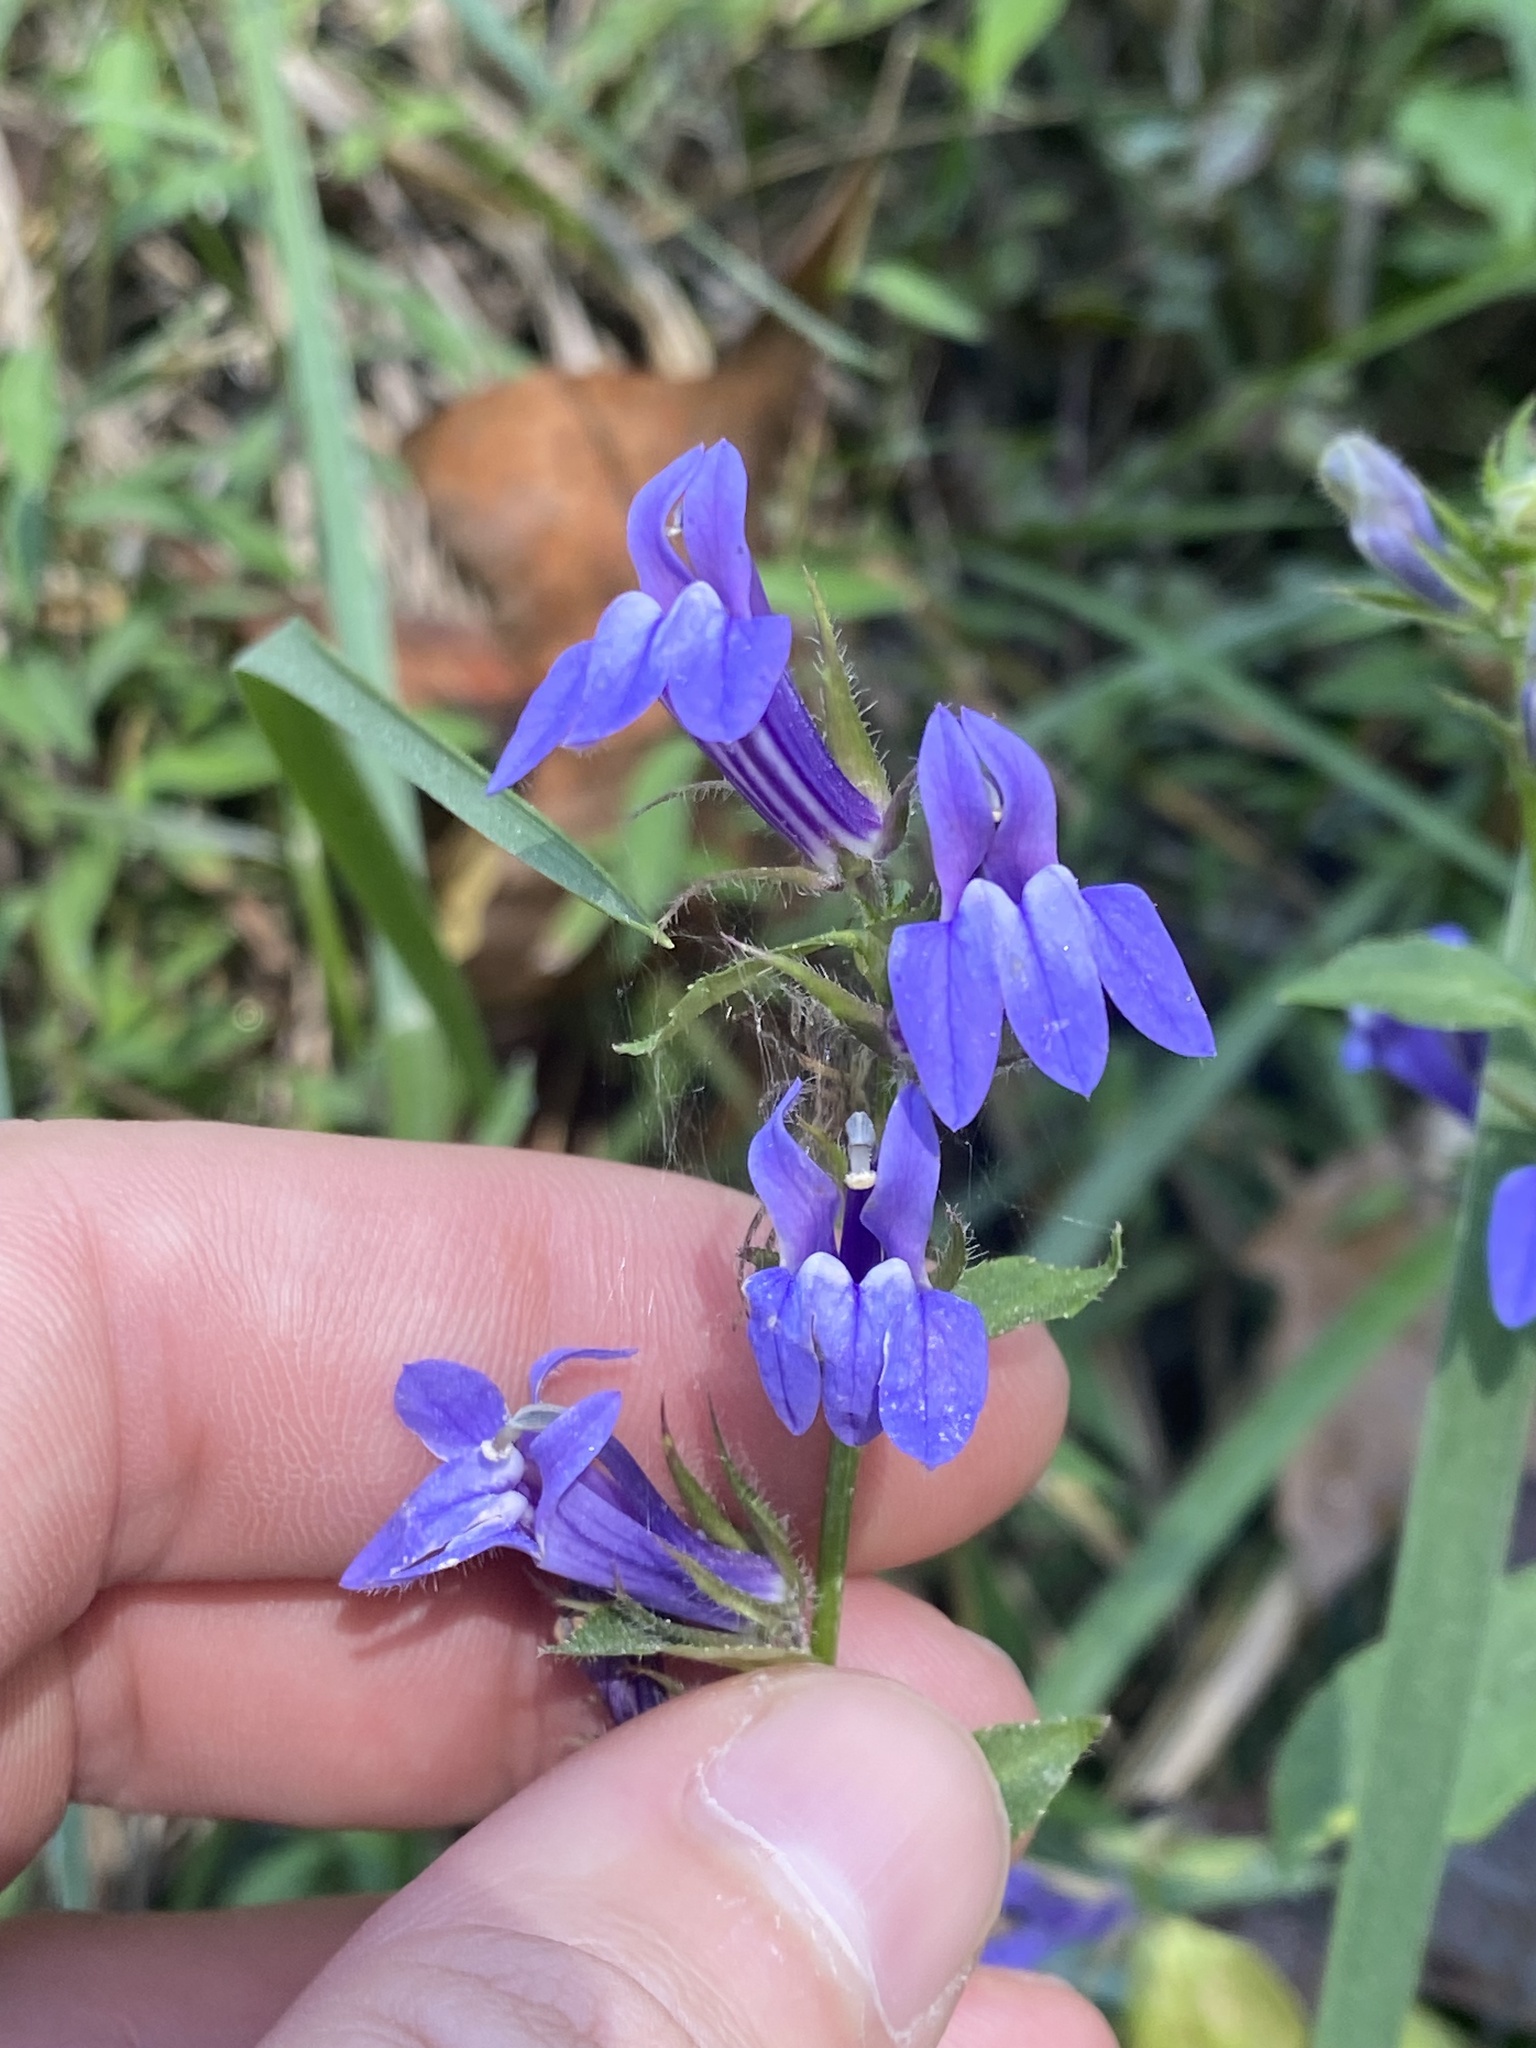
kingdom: Plantae
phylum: Tracheophyta
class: Magnoliopsida
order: Asterales
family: Campanulaceae
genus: Lobelia
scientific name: Lobelia siphilitica
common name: Great lobelia
